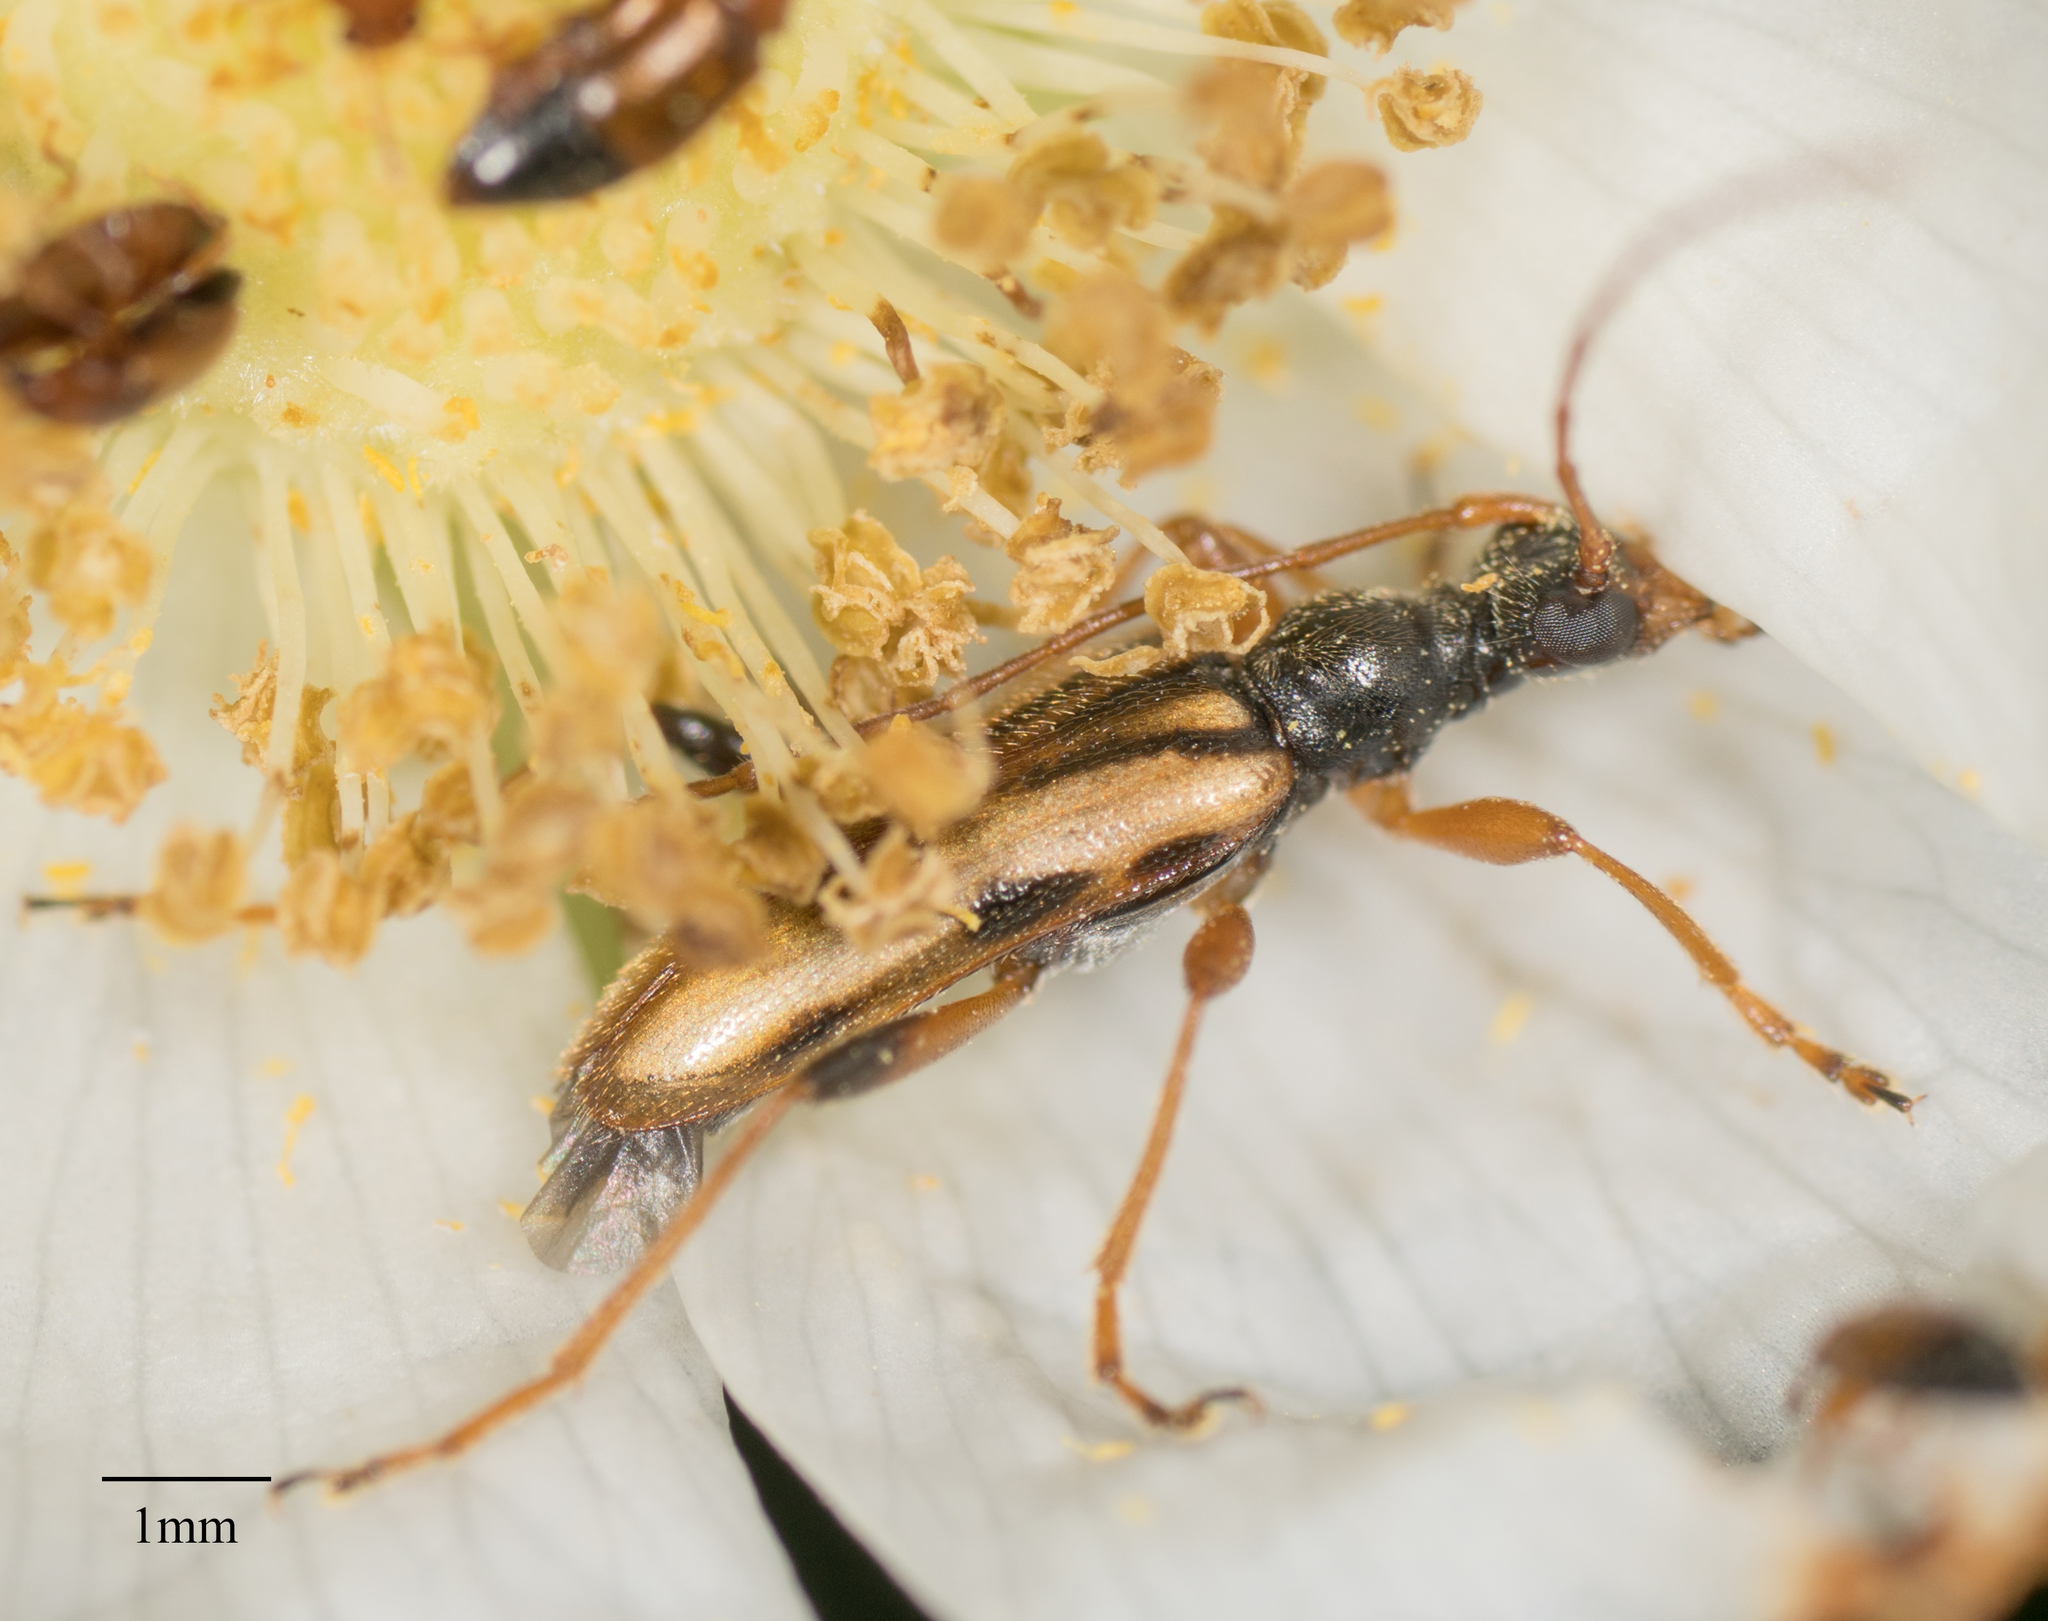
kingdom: Animalia
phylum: Arthropoda
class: Insecta
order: Coleoptera
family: Cerambycidae
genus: Pidonia
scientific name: Pidonia scripta
